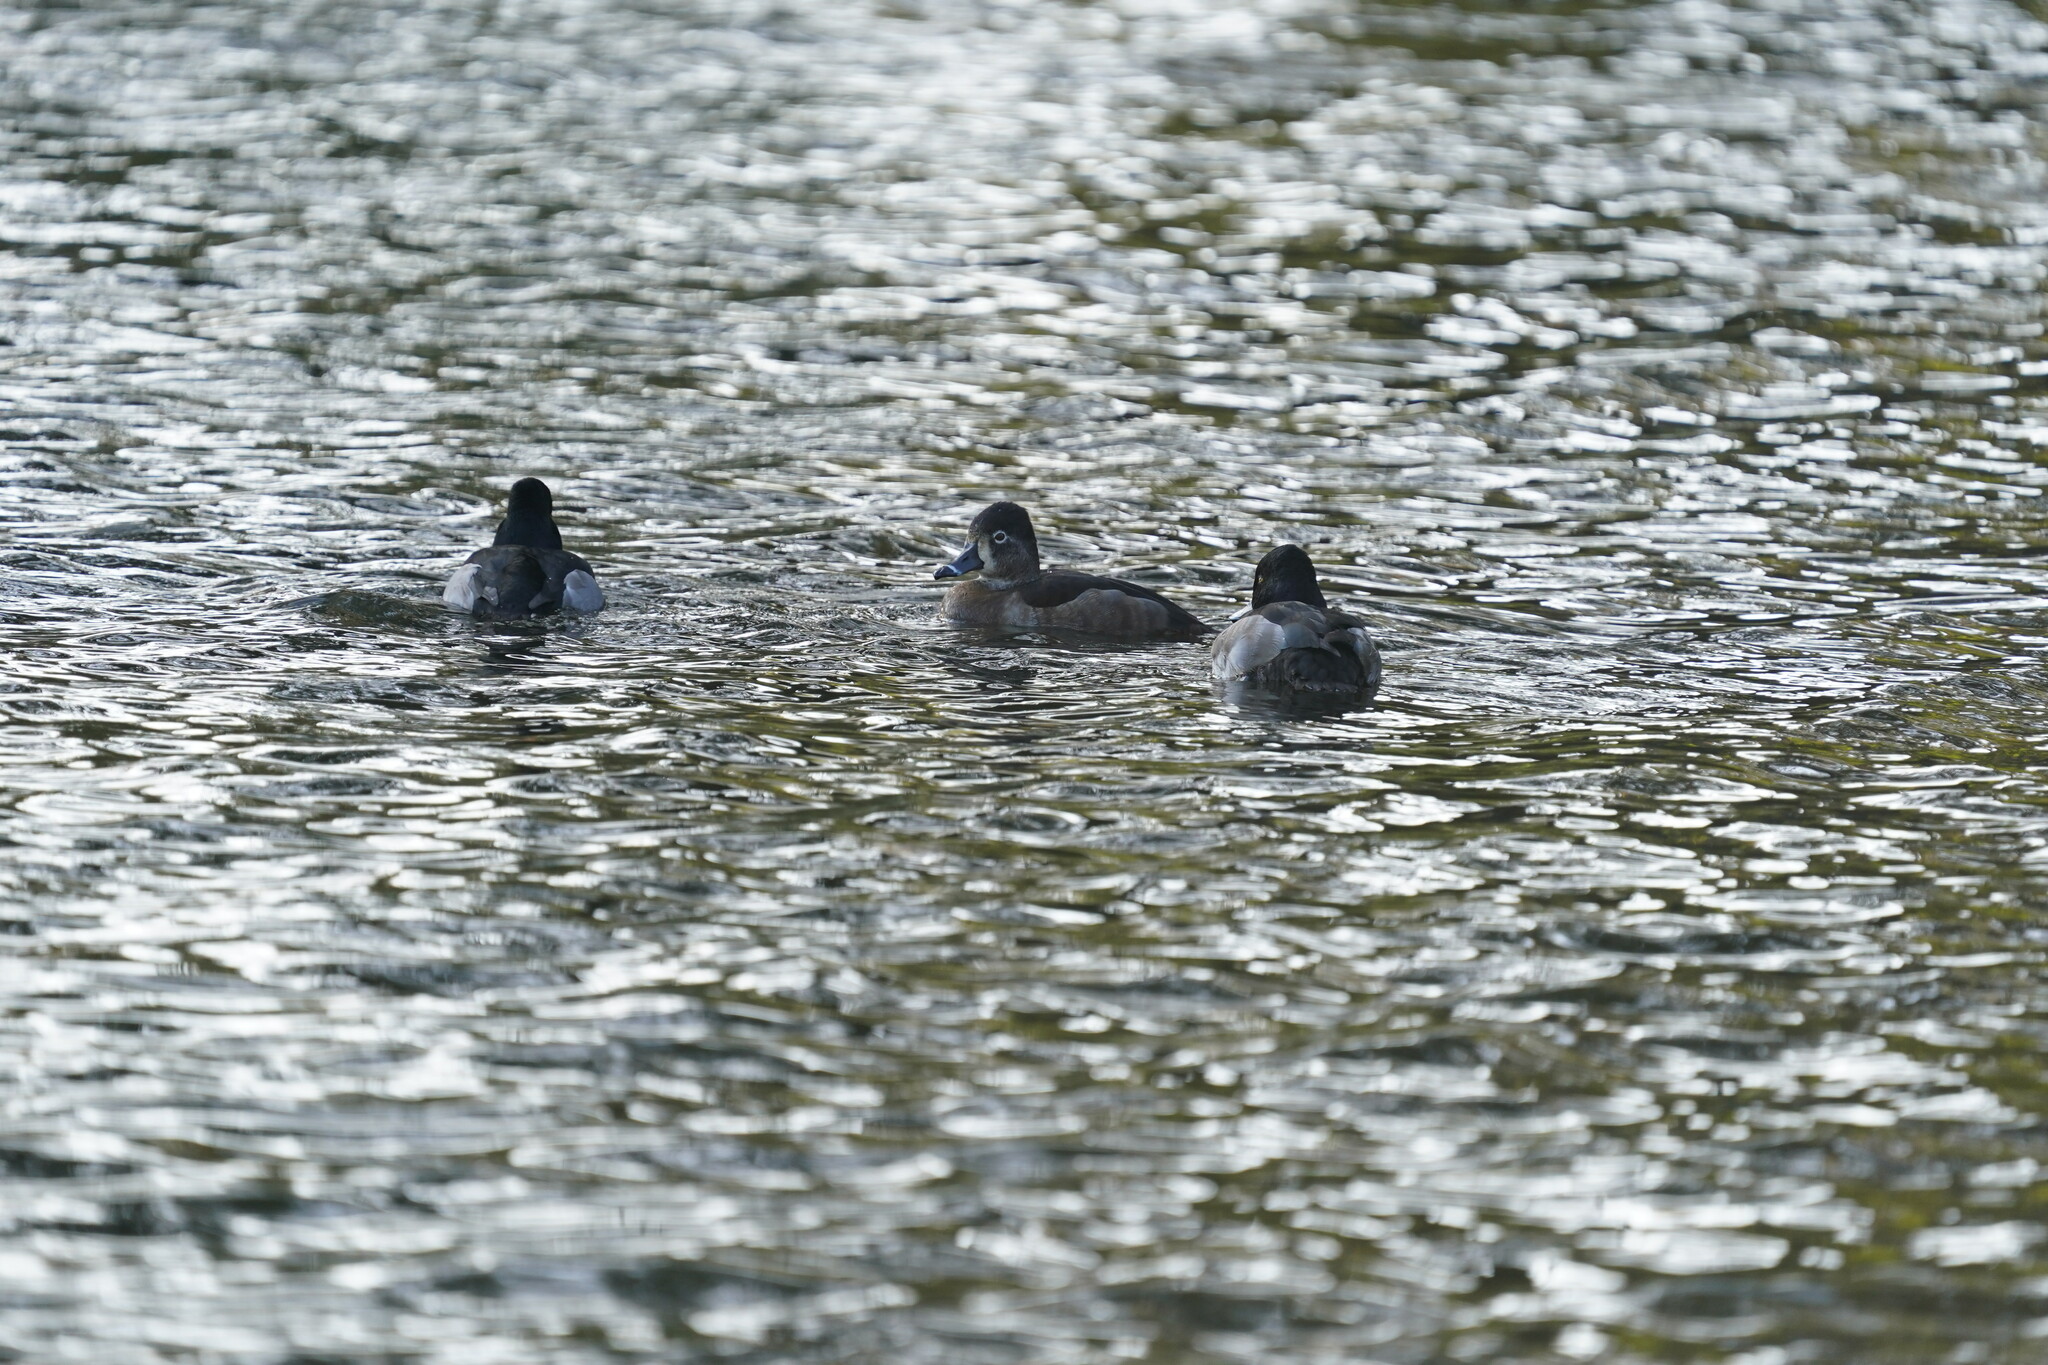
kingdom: Animalia
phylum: Chordata
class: Aves
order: Anseriformes
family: Anatidae
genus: Aythya
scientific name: Aythya collaris
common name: Ring-necked duck
